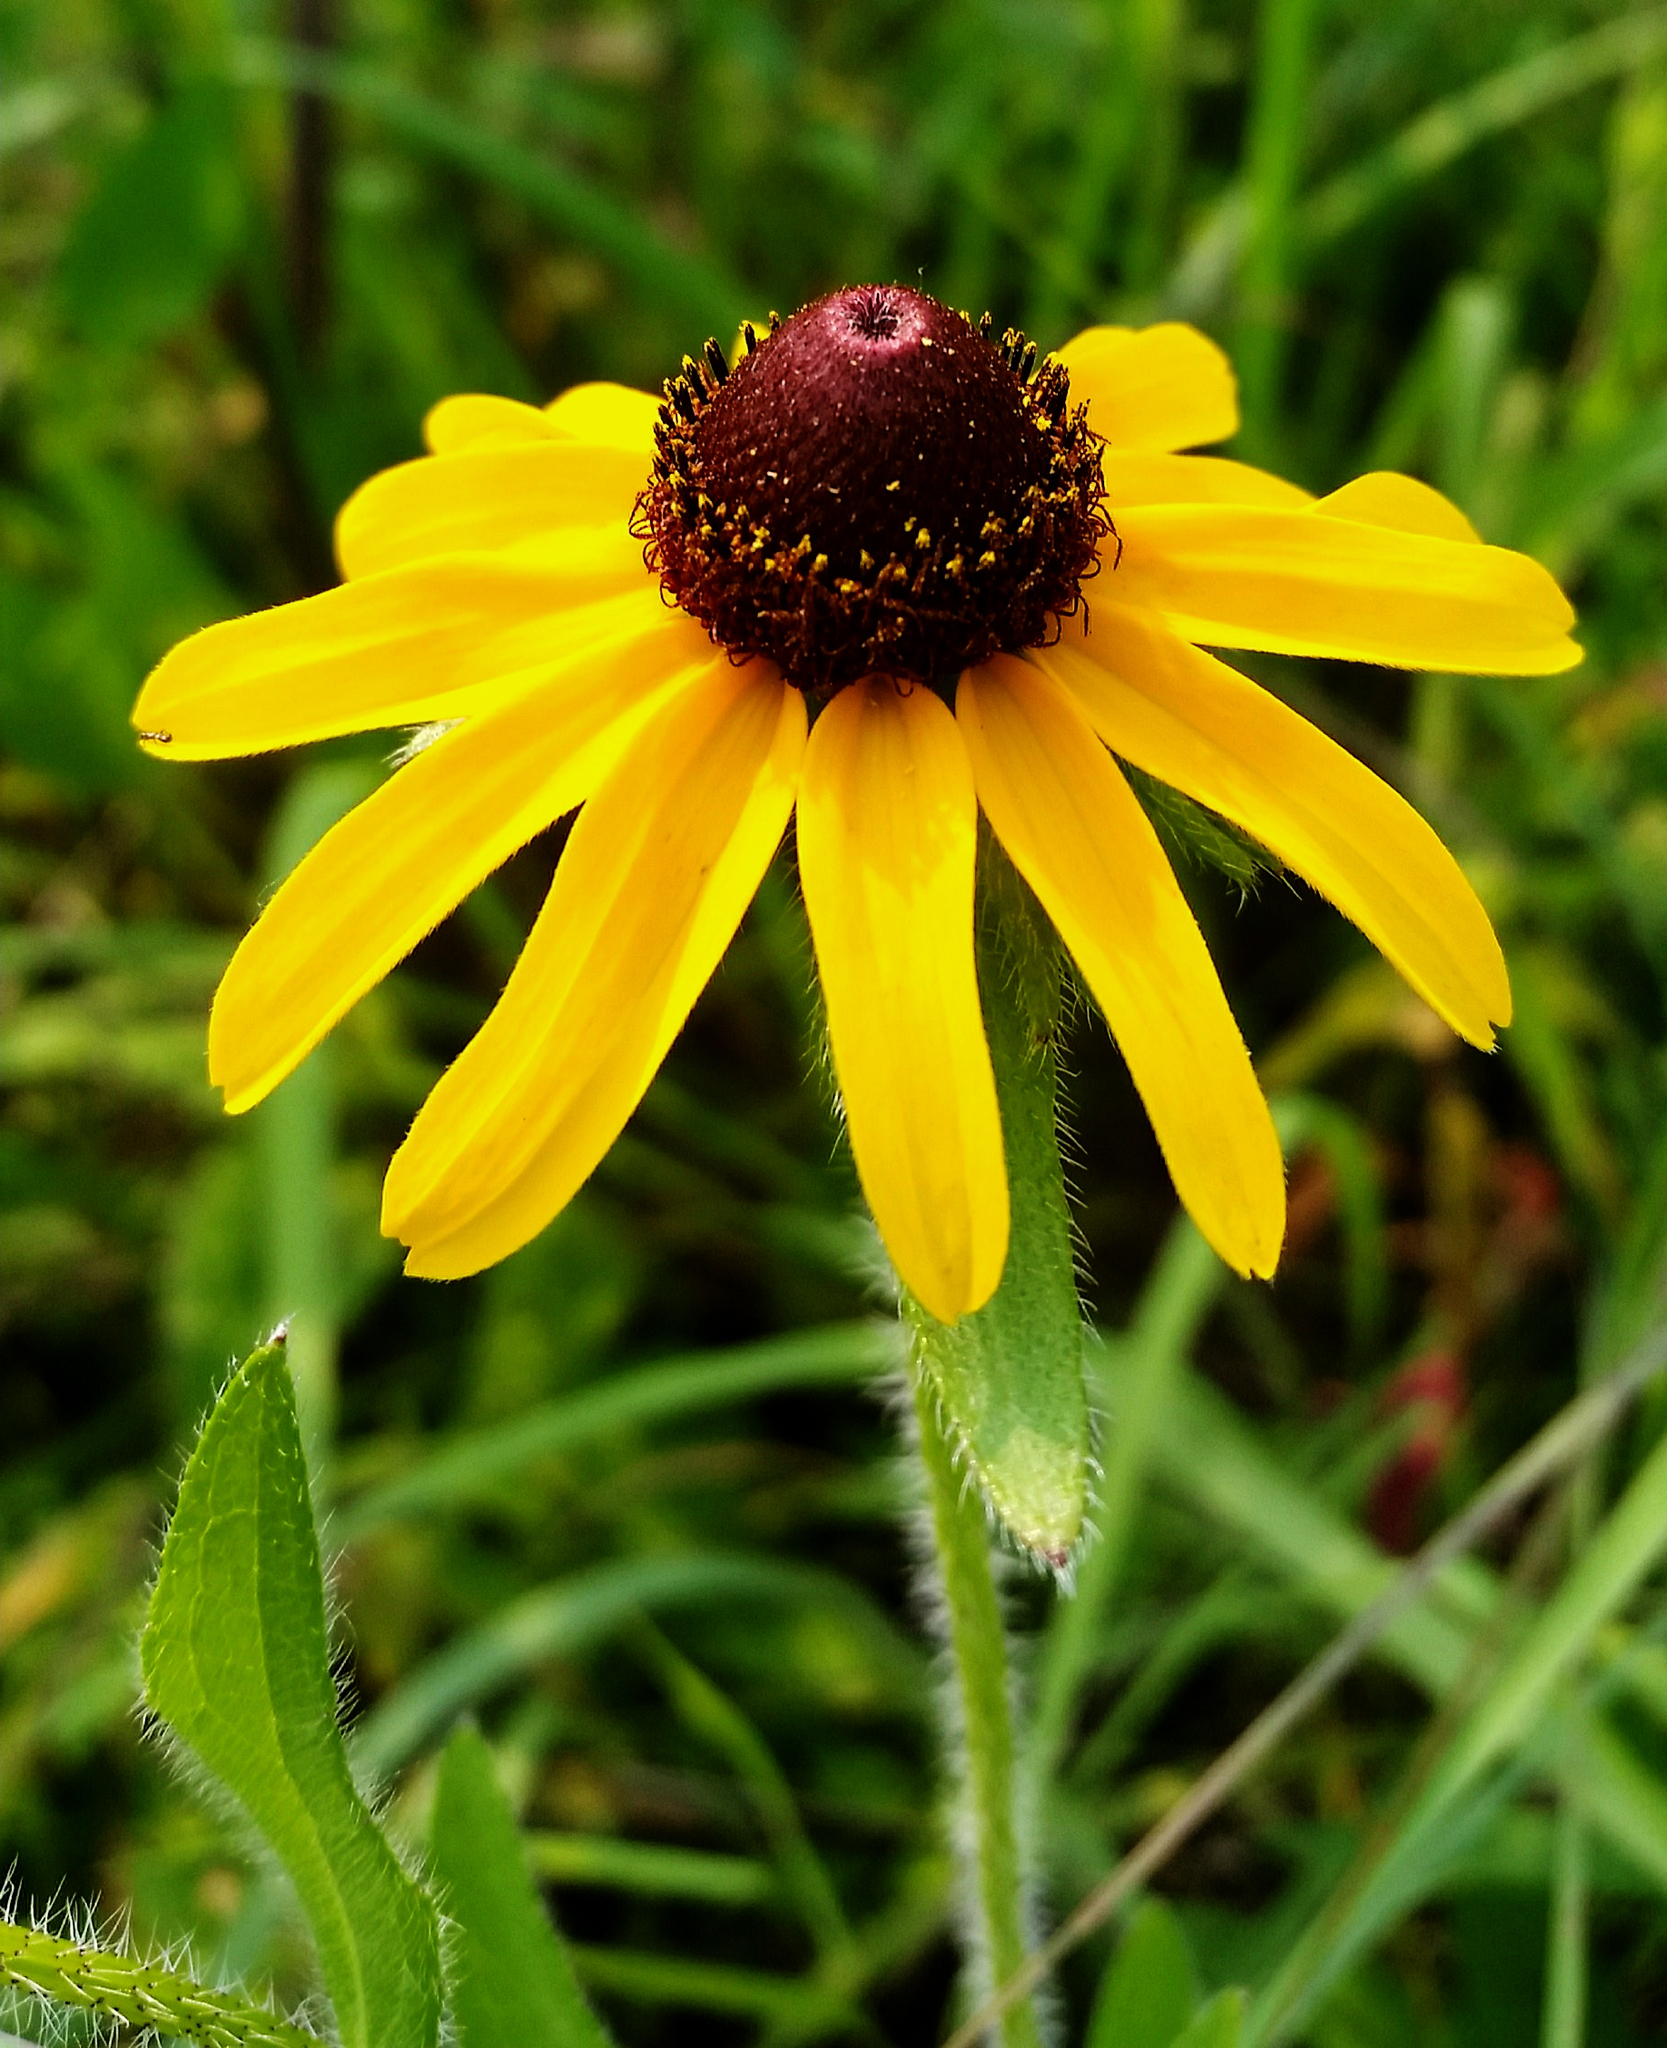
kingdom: Plantae
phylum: Tracheophyta
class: Magnoliopsida
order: Asterales
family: Asteraceae
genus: Rudbeckia
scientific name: Rudbeckia hirta
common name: Black-eyed-susan
